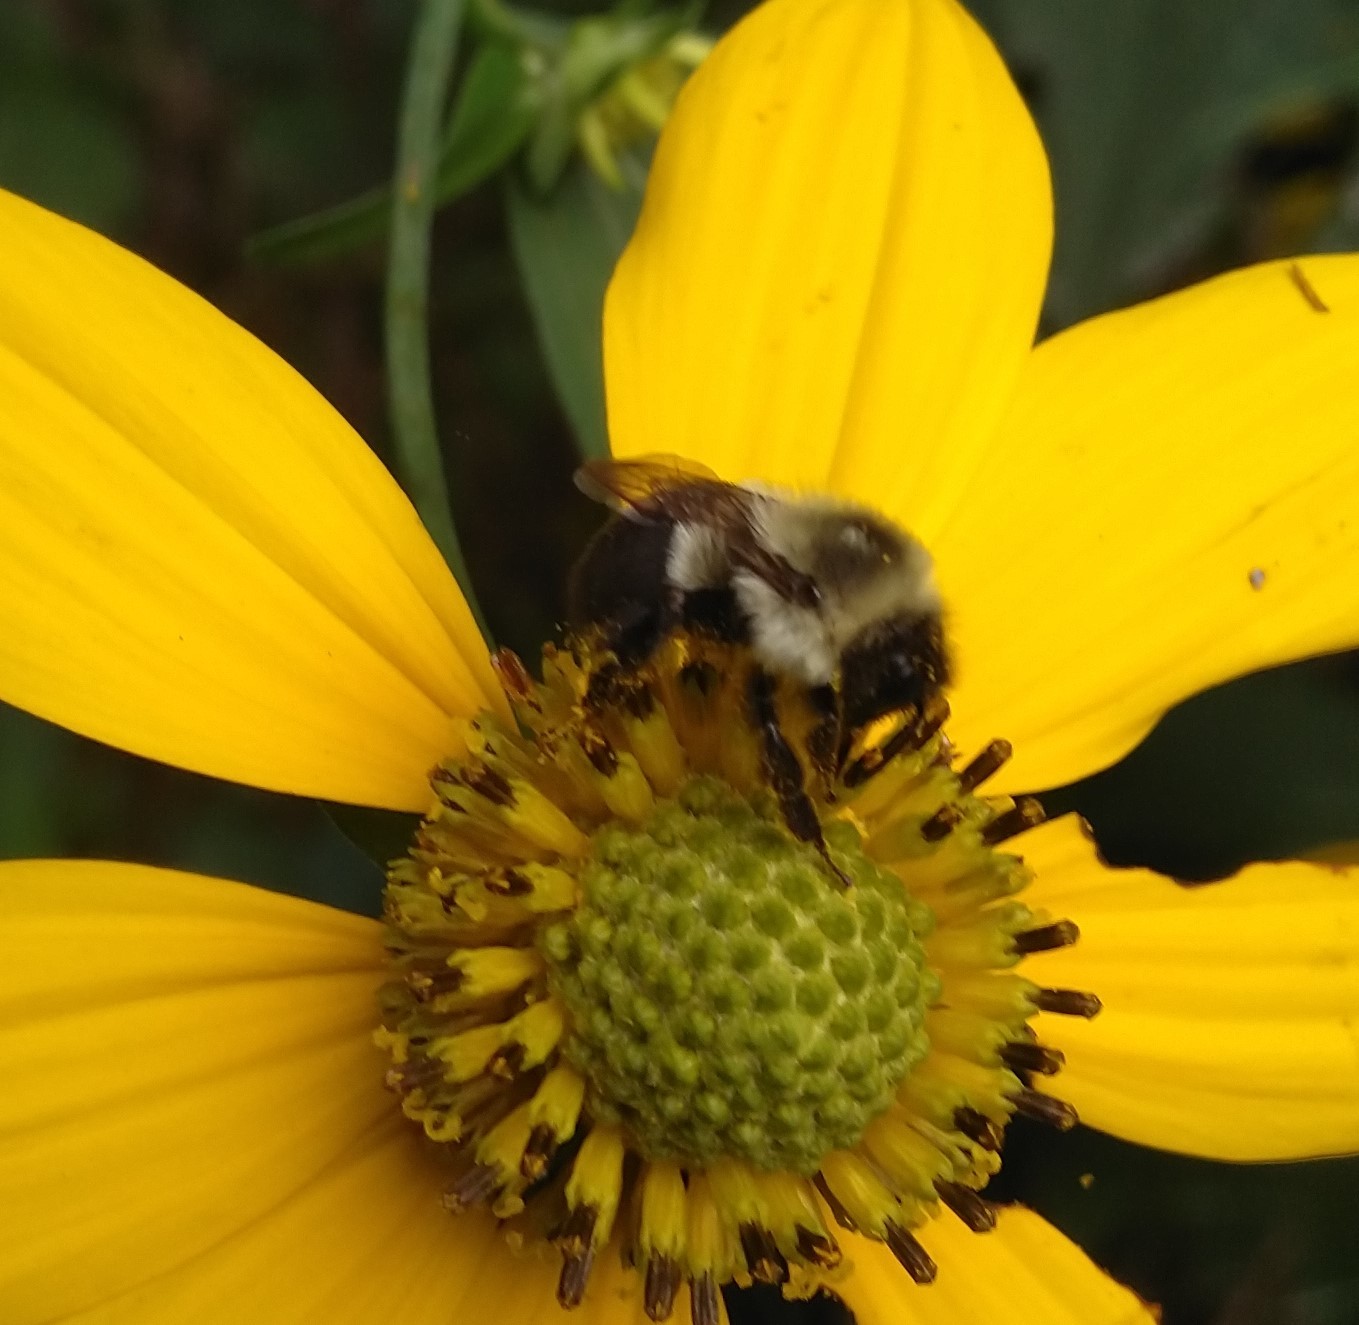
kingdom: Animalia
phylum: Arthropoda
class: Insecta
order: Hymenoptera
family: Apidae
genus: Bombus
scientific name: Bombus impatiens
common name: Common eastern bumble bee
